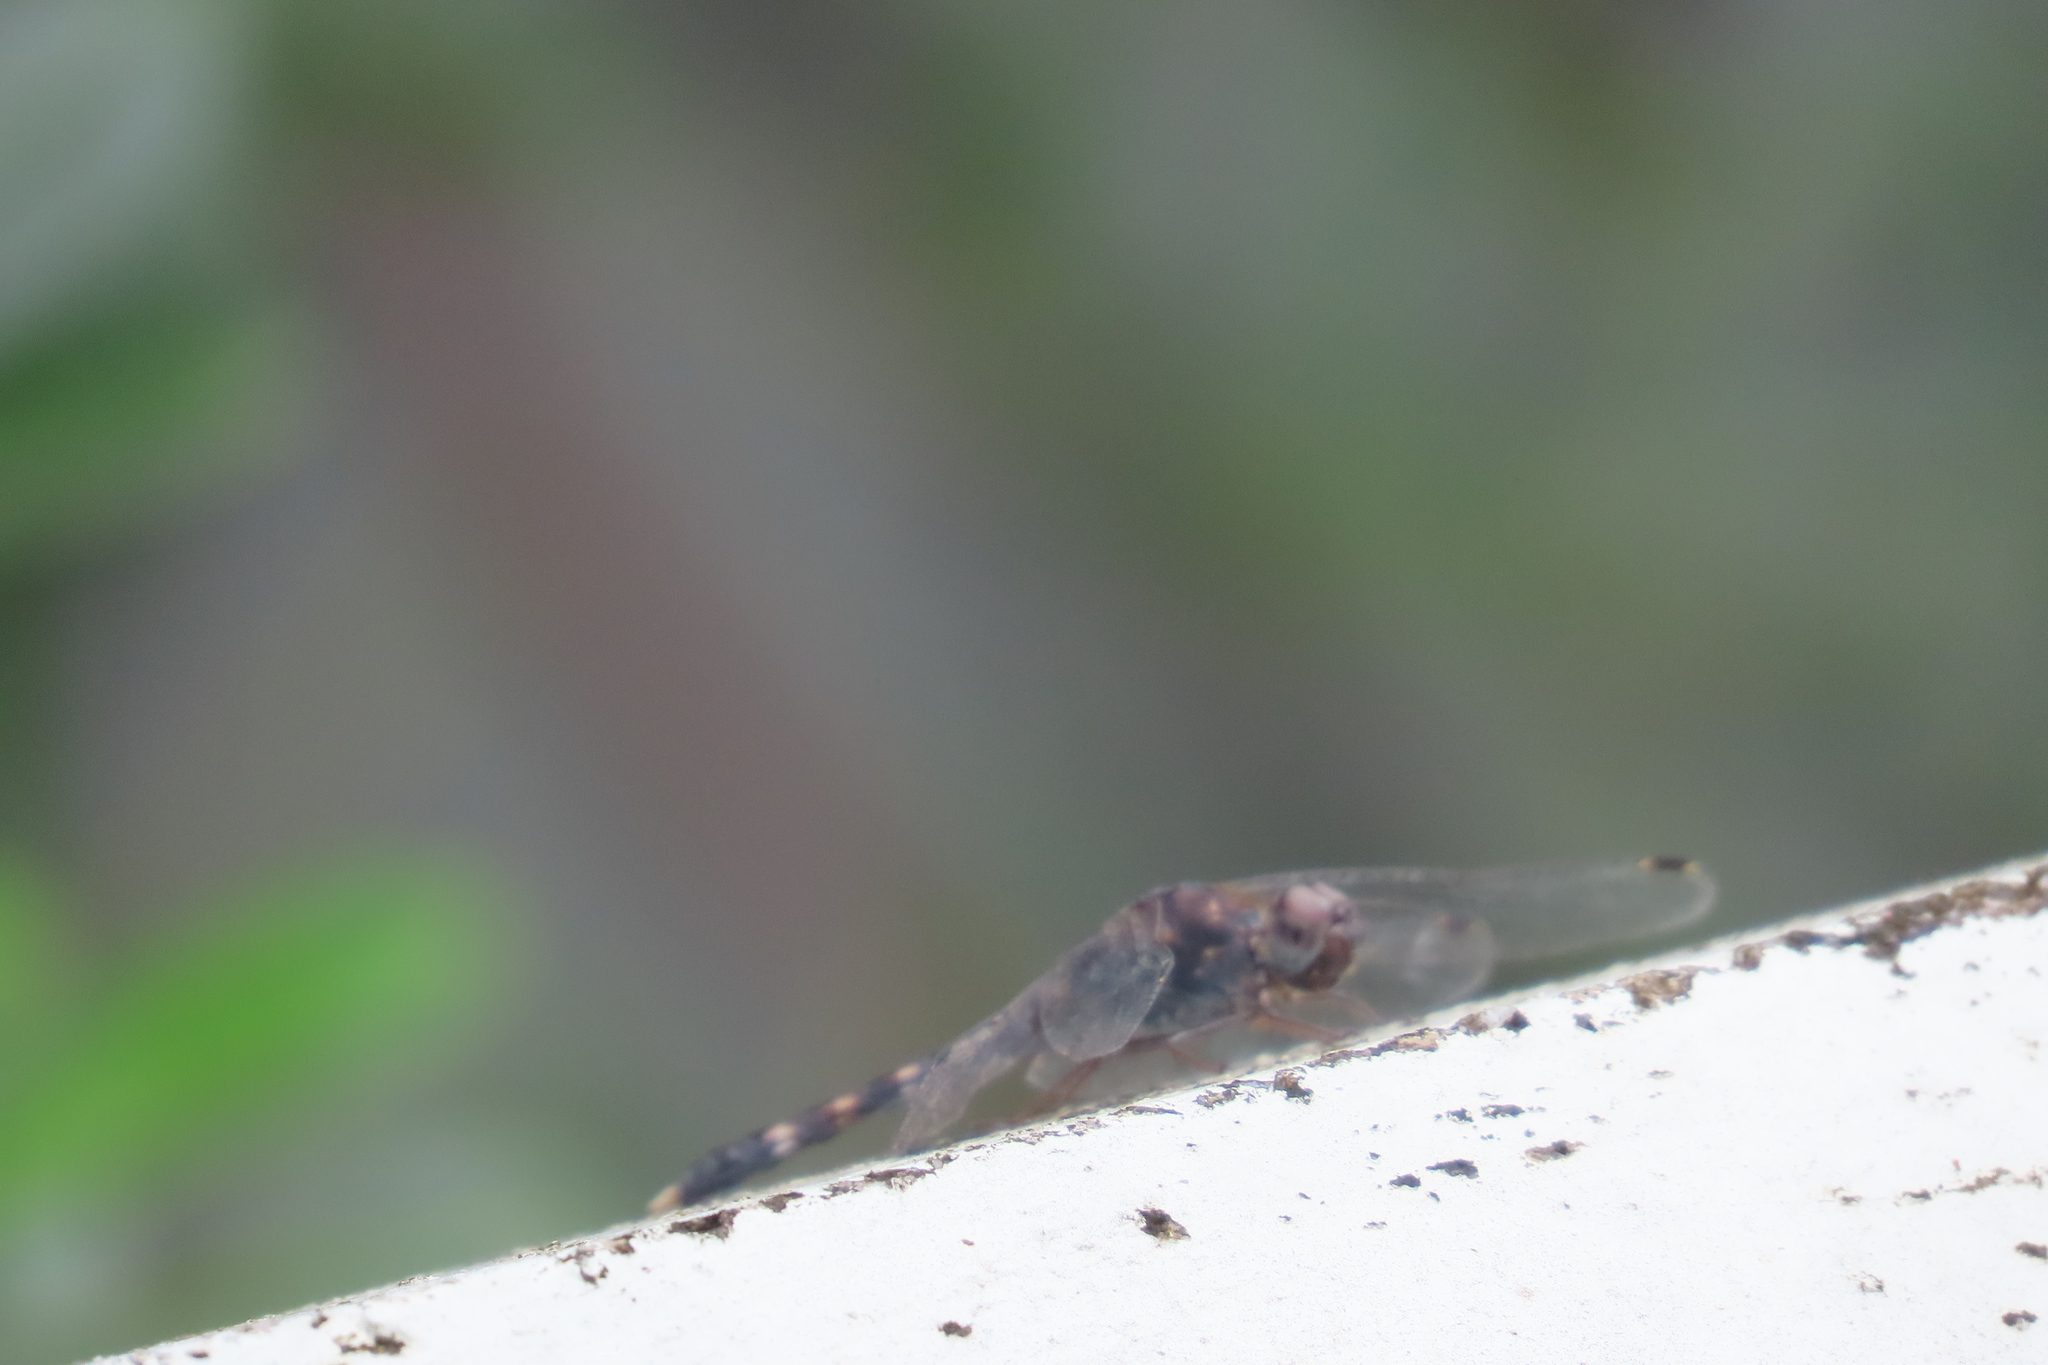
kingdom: Animalia
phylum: Arthropoda
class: Insecta
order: Odonata
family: Libellulidae
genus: Bradinopyga
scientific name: Bradinopyga geminata
